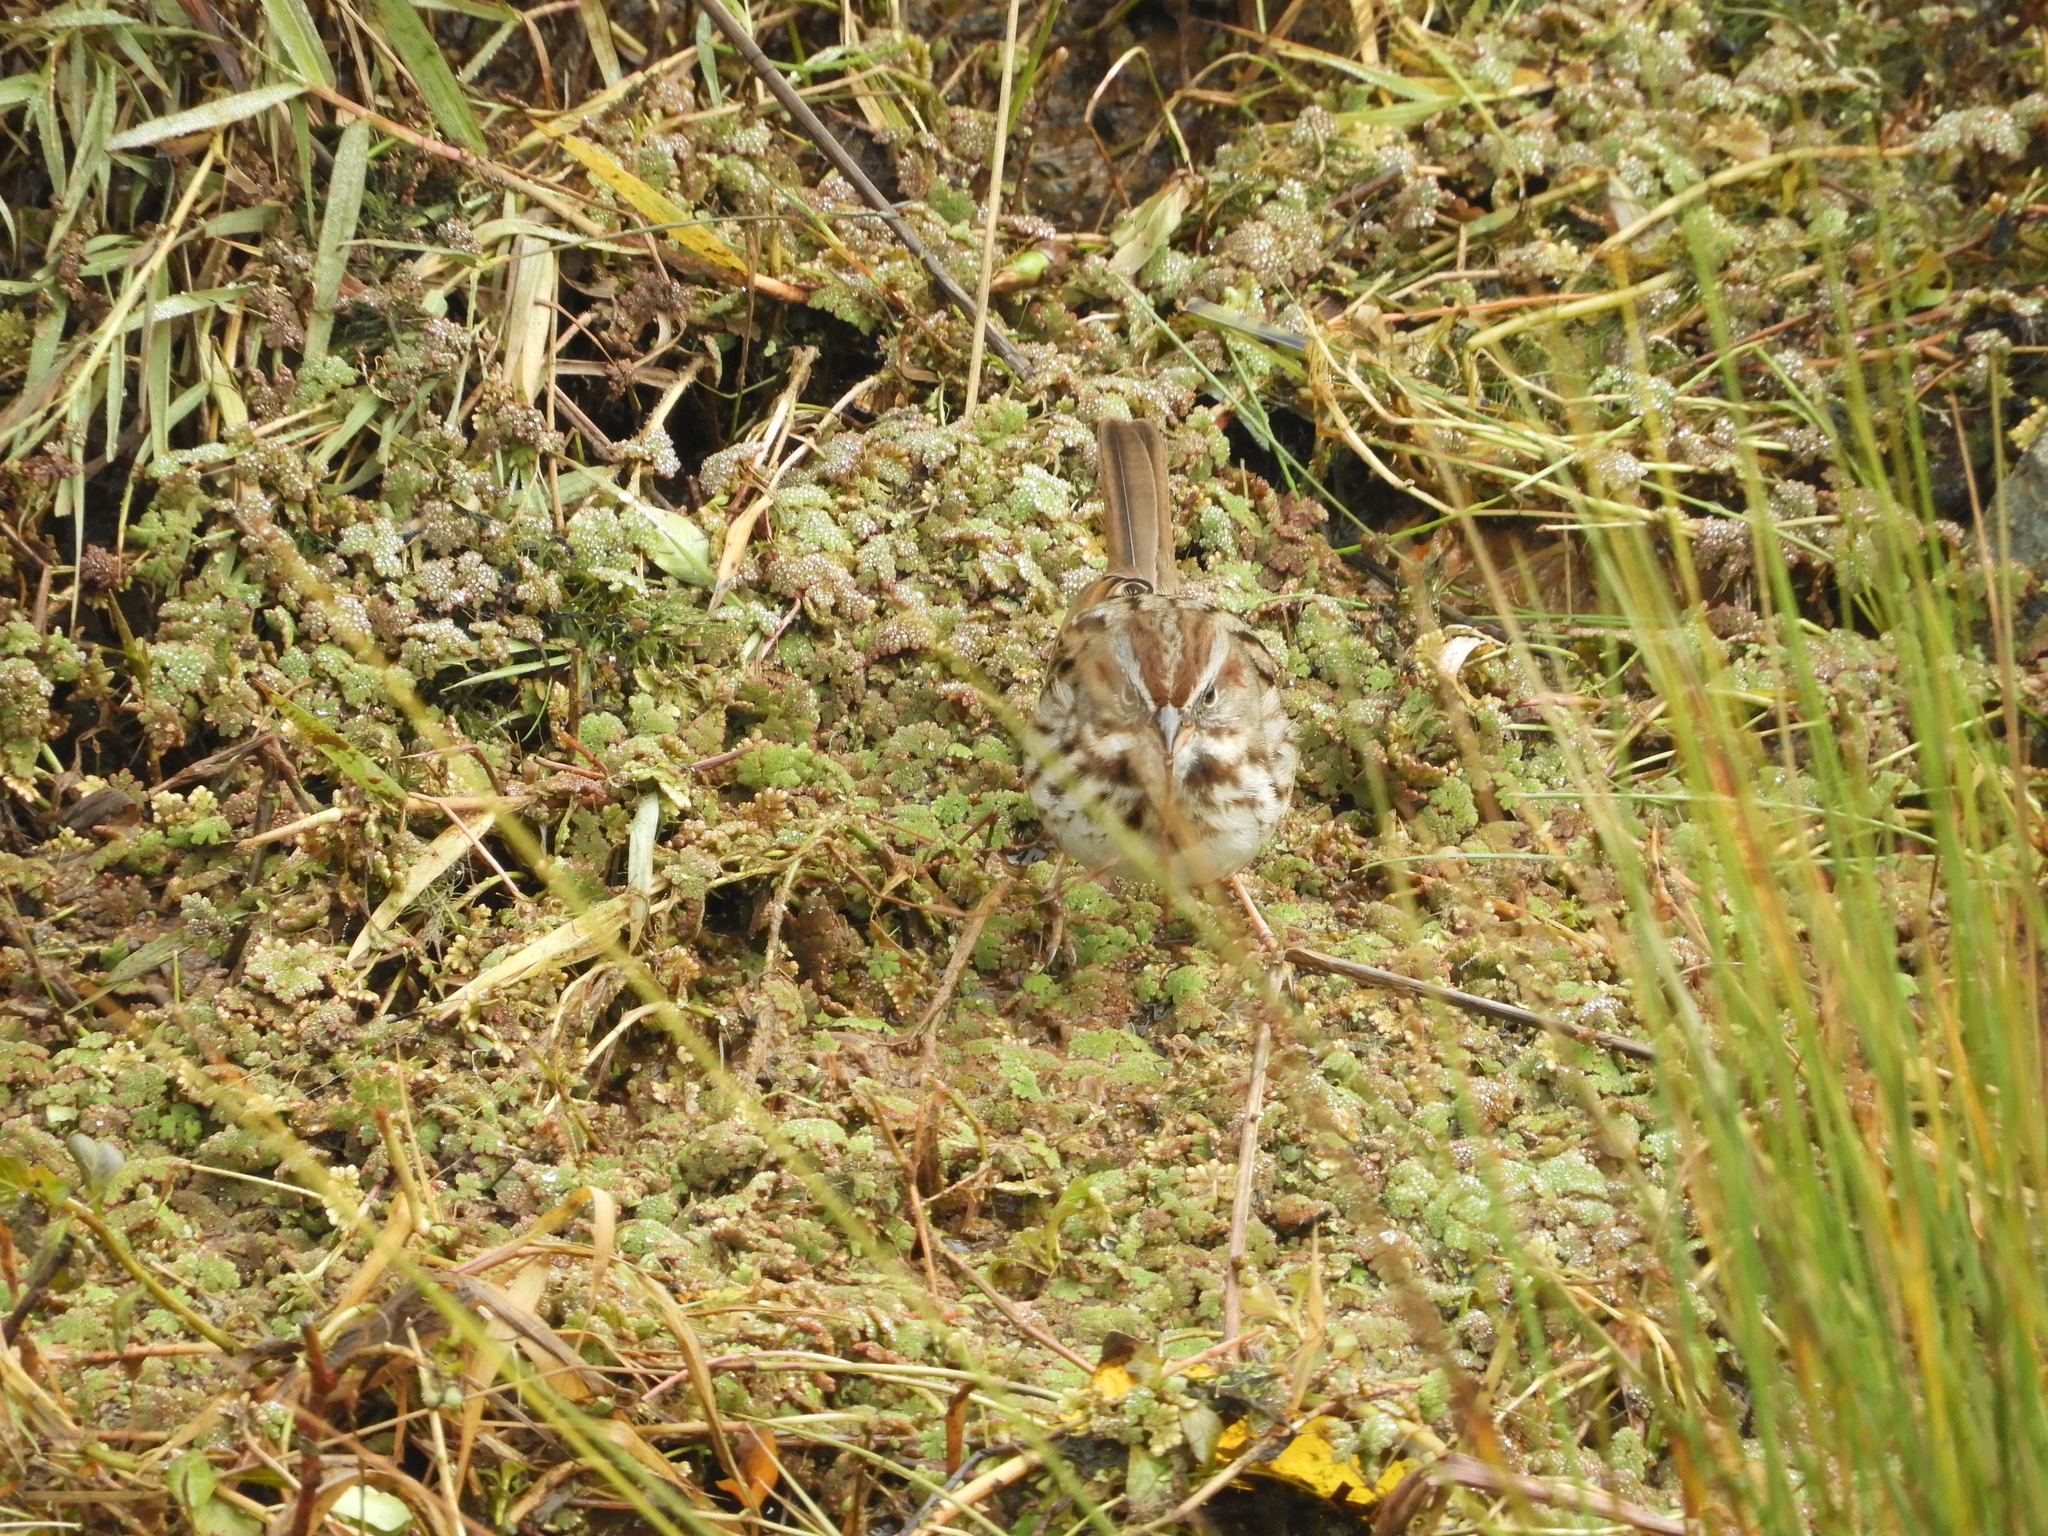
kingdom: Animalia
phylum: Chordata
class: Aves
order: Passeriformes
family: Passerellidae
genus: Melospiza
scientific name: Melospiza melodia
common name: Song sparrow
